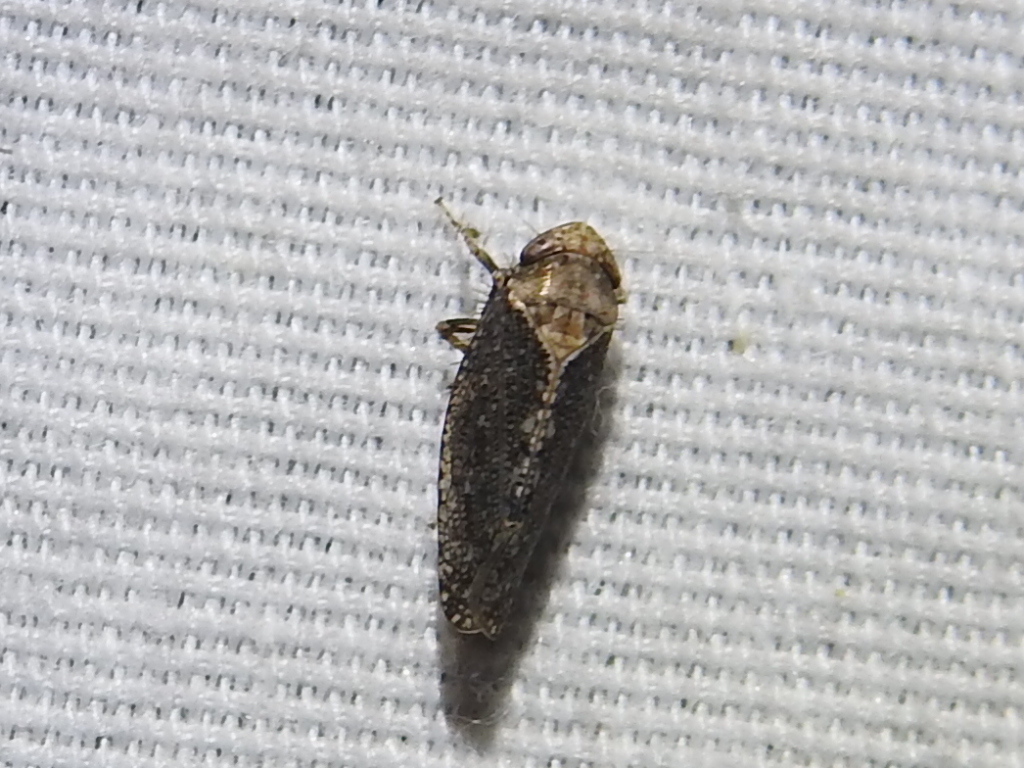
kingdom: Animalia
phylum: Arthropoda
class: Insecta
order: Hemiptera
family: Cicadellidae
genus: Excultanus
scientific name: Excultanus excultus
